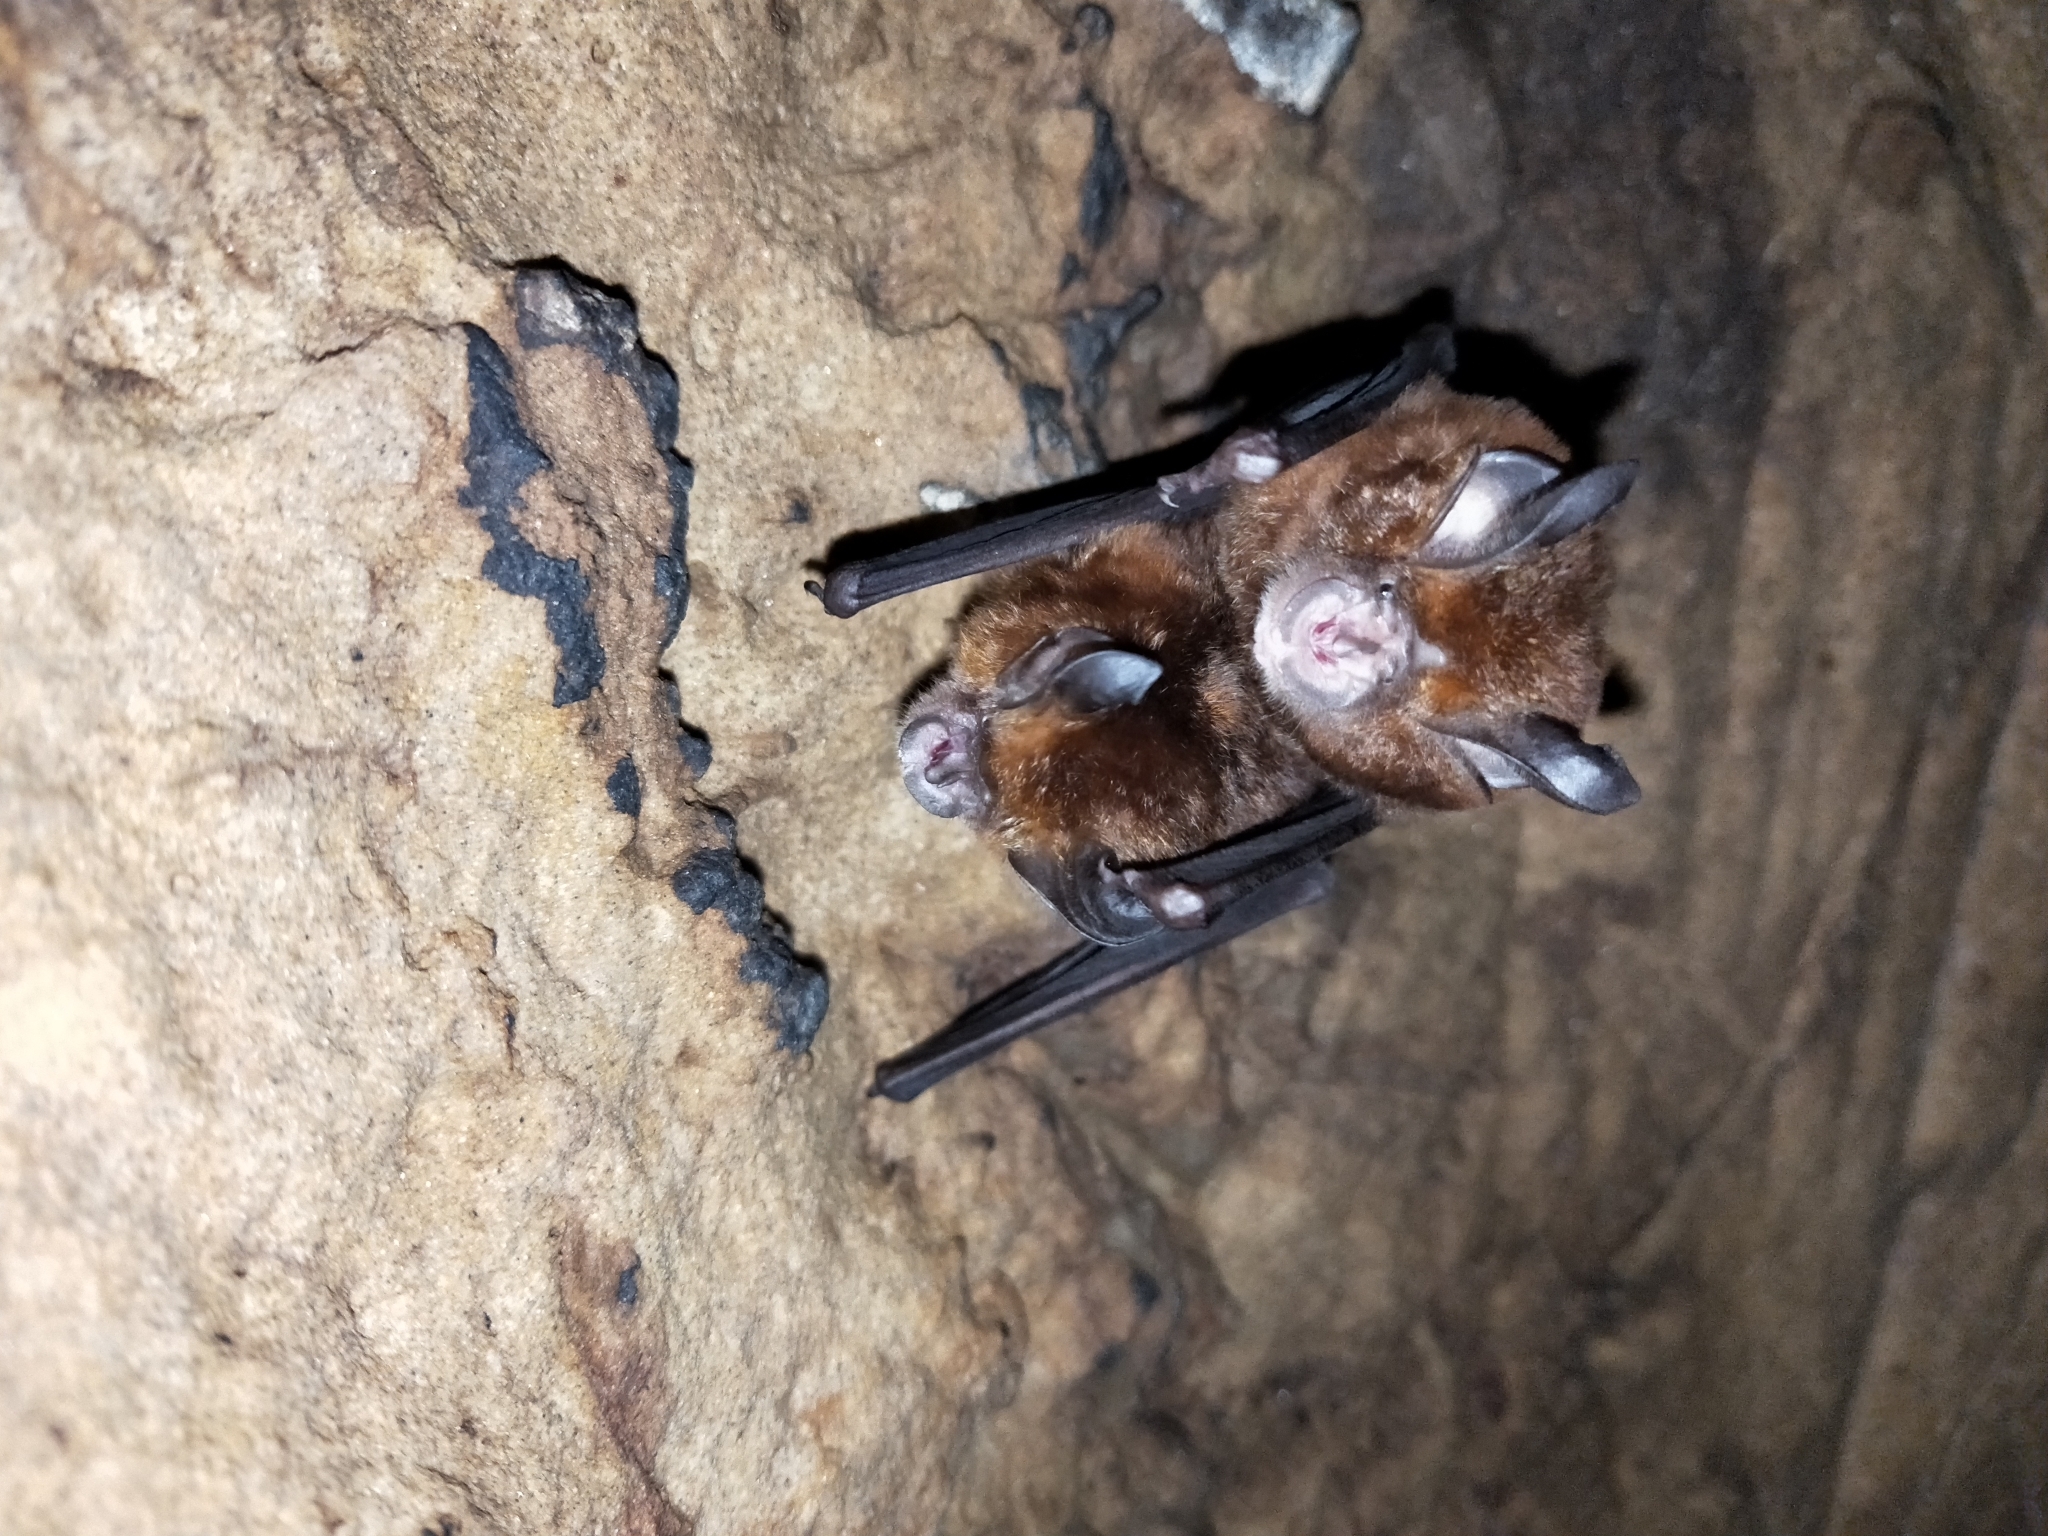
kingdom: Animalia
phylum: Chordata
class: Mammalia
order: Chiroptera
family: Rhinolophidae
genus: Rhinolophus
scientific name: Rhinolophus monoceros
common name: Formosan lesser horseshoe bat
